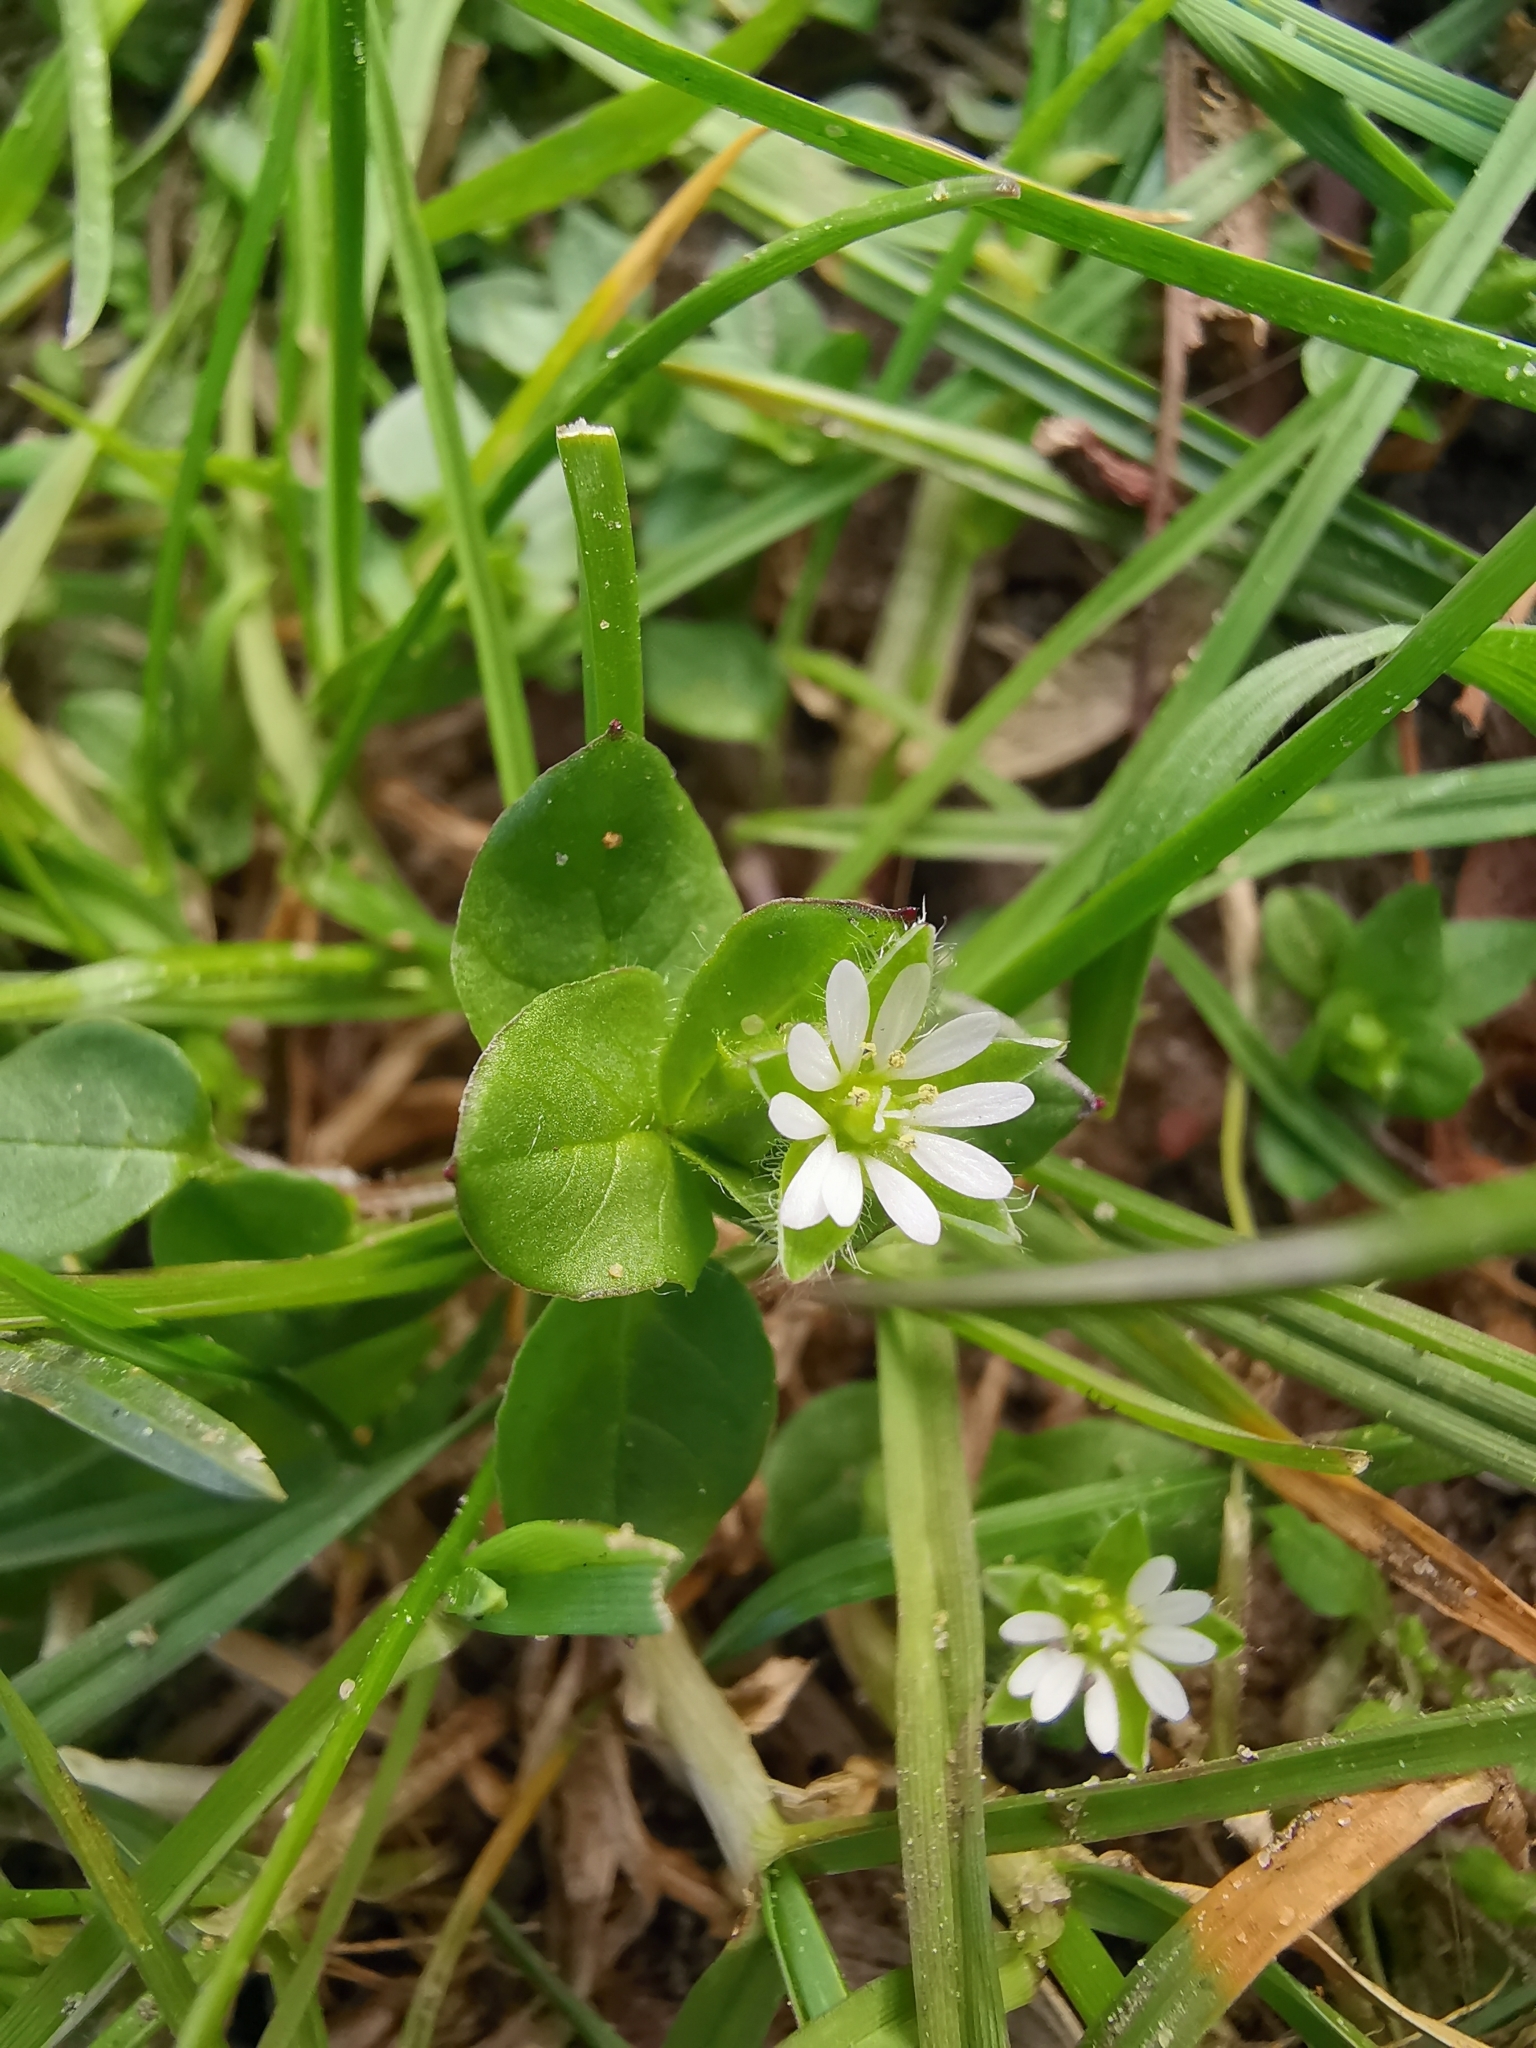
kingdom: Plantae
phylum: Tracheophyta
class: Magnoliopsida
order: Caryophyllales
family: Caryophyllaceae
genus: Stellaria
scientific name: Stellaria media
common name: Common chickweed
